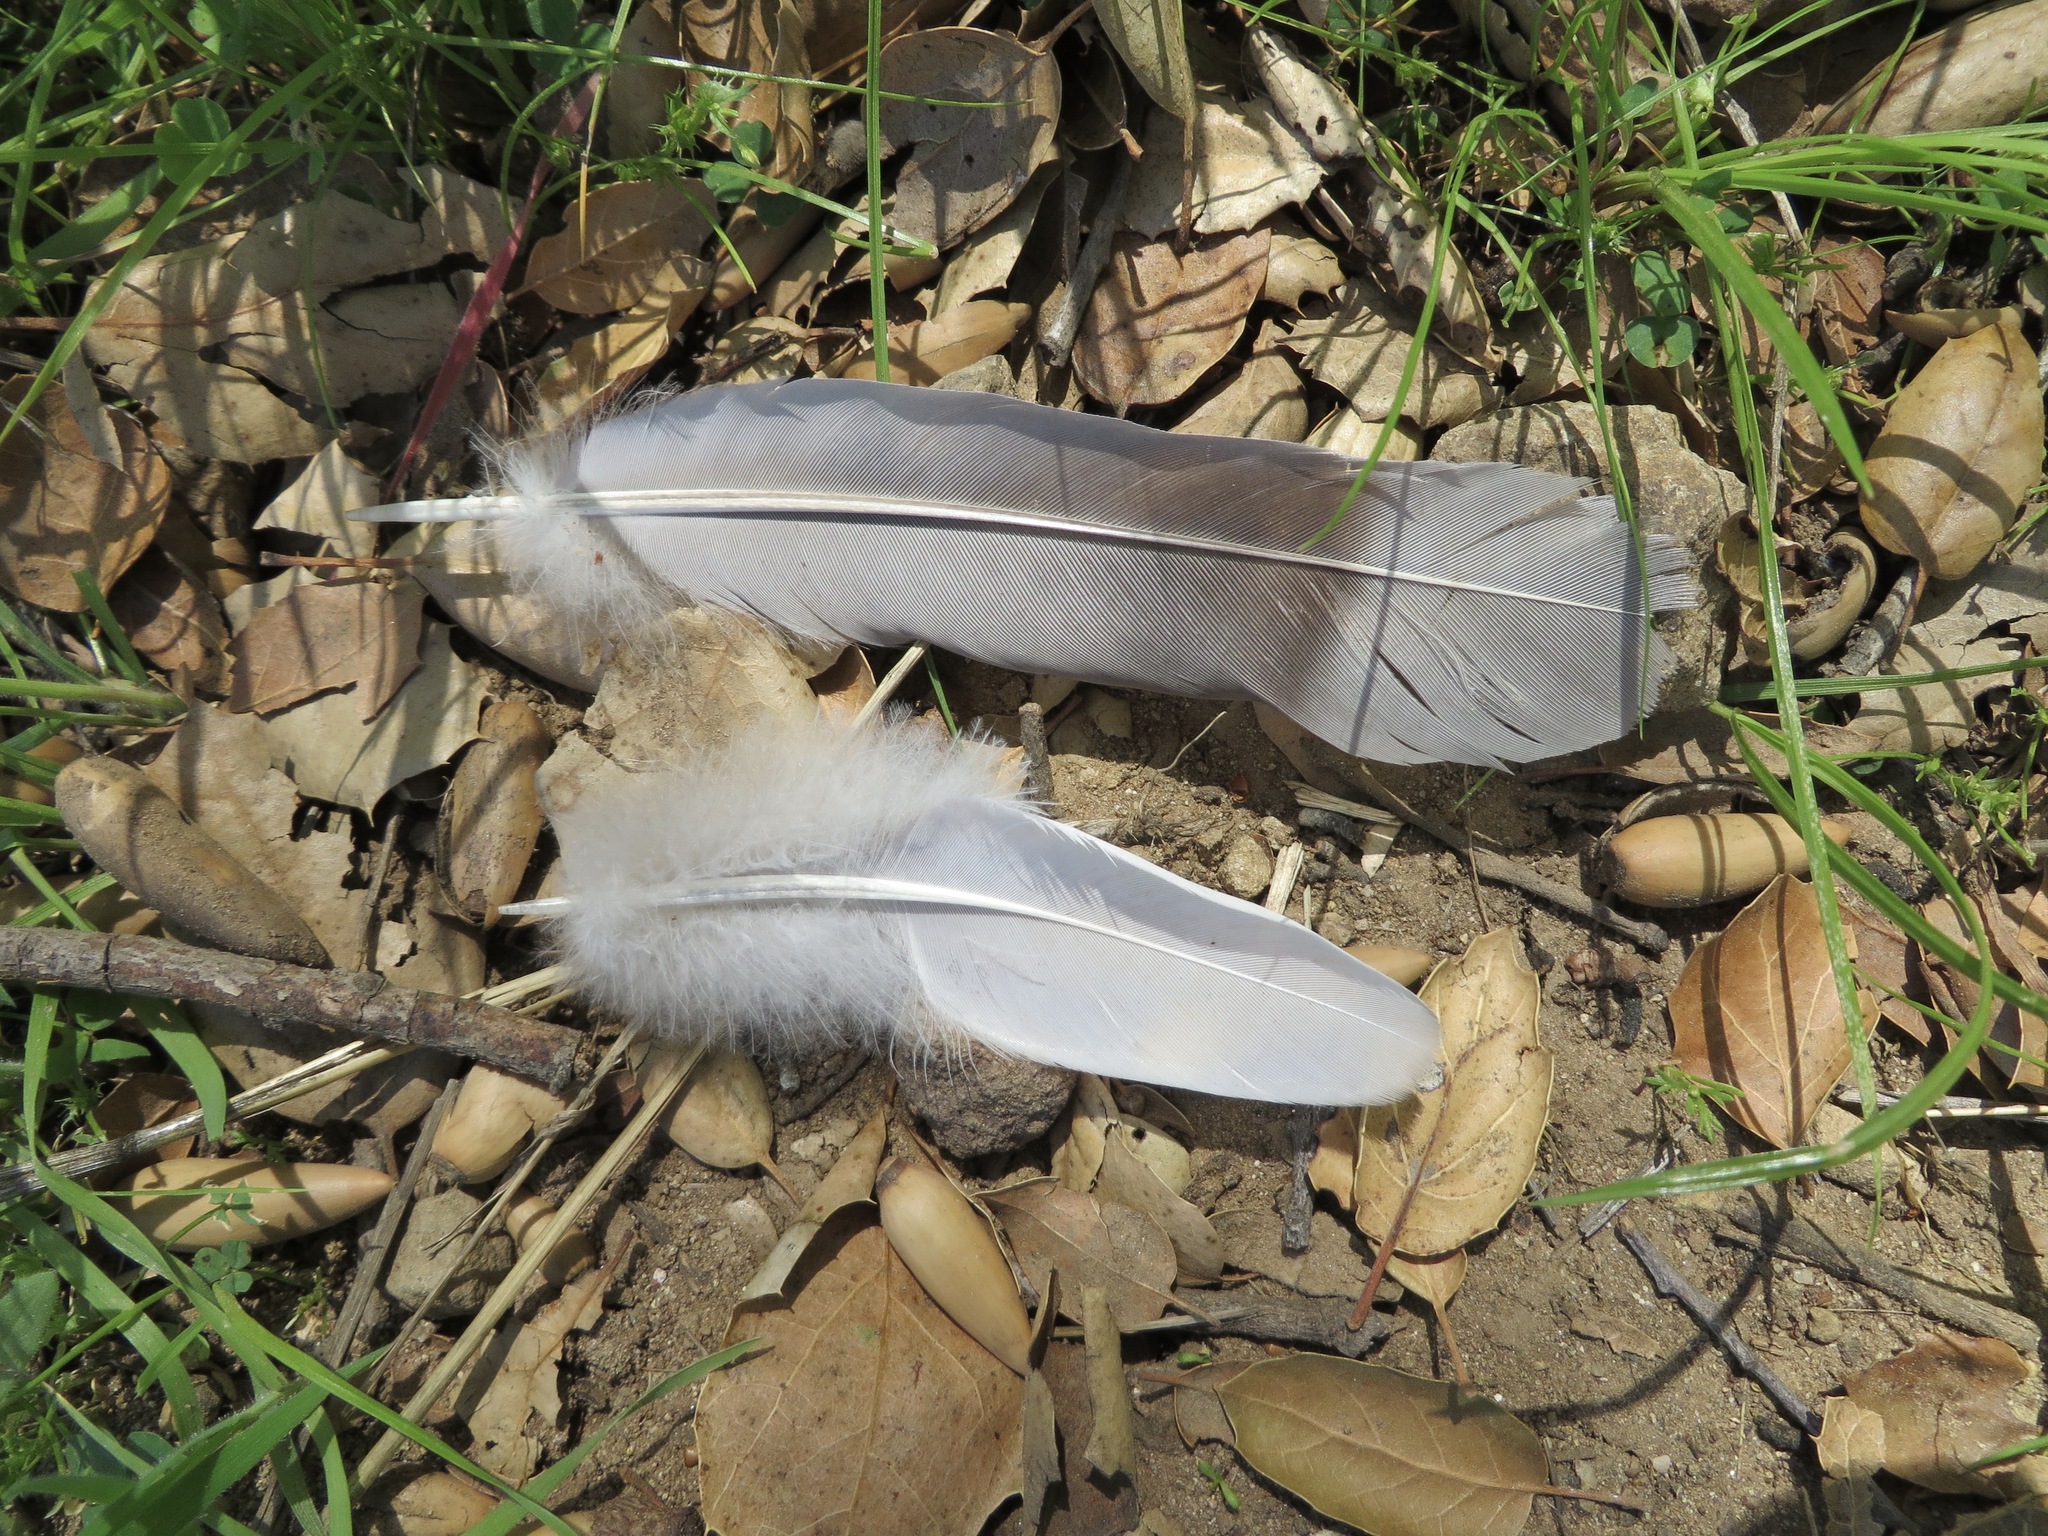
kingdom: Animalia
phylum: Chordata
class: Aves
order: Columbiformes
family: Columbidae
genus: Patagioenas
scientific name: Patagioenas fasciata
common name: Band-tailed pigeon
